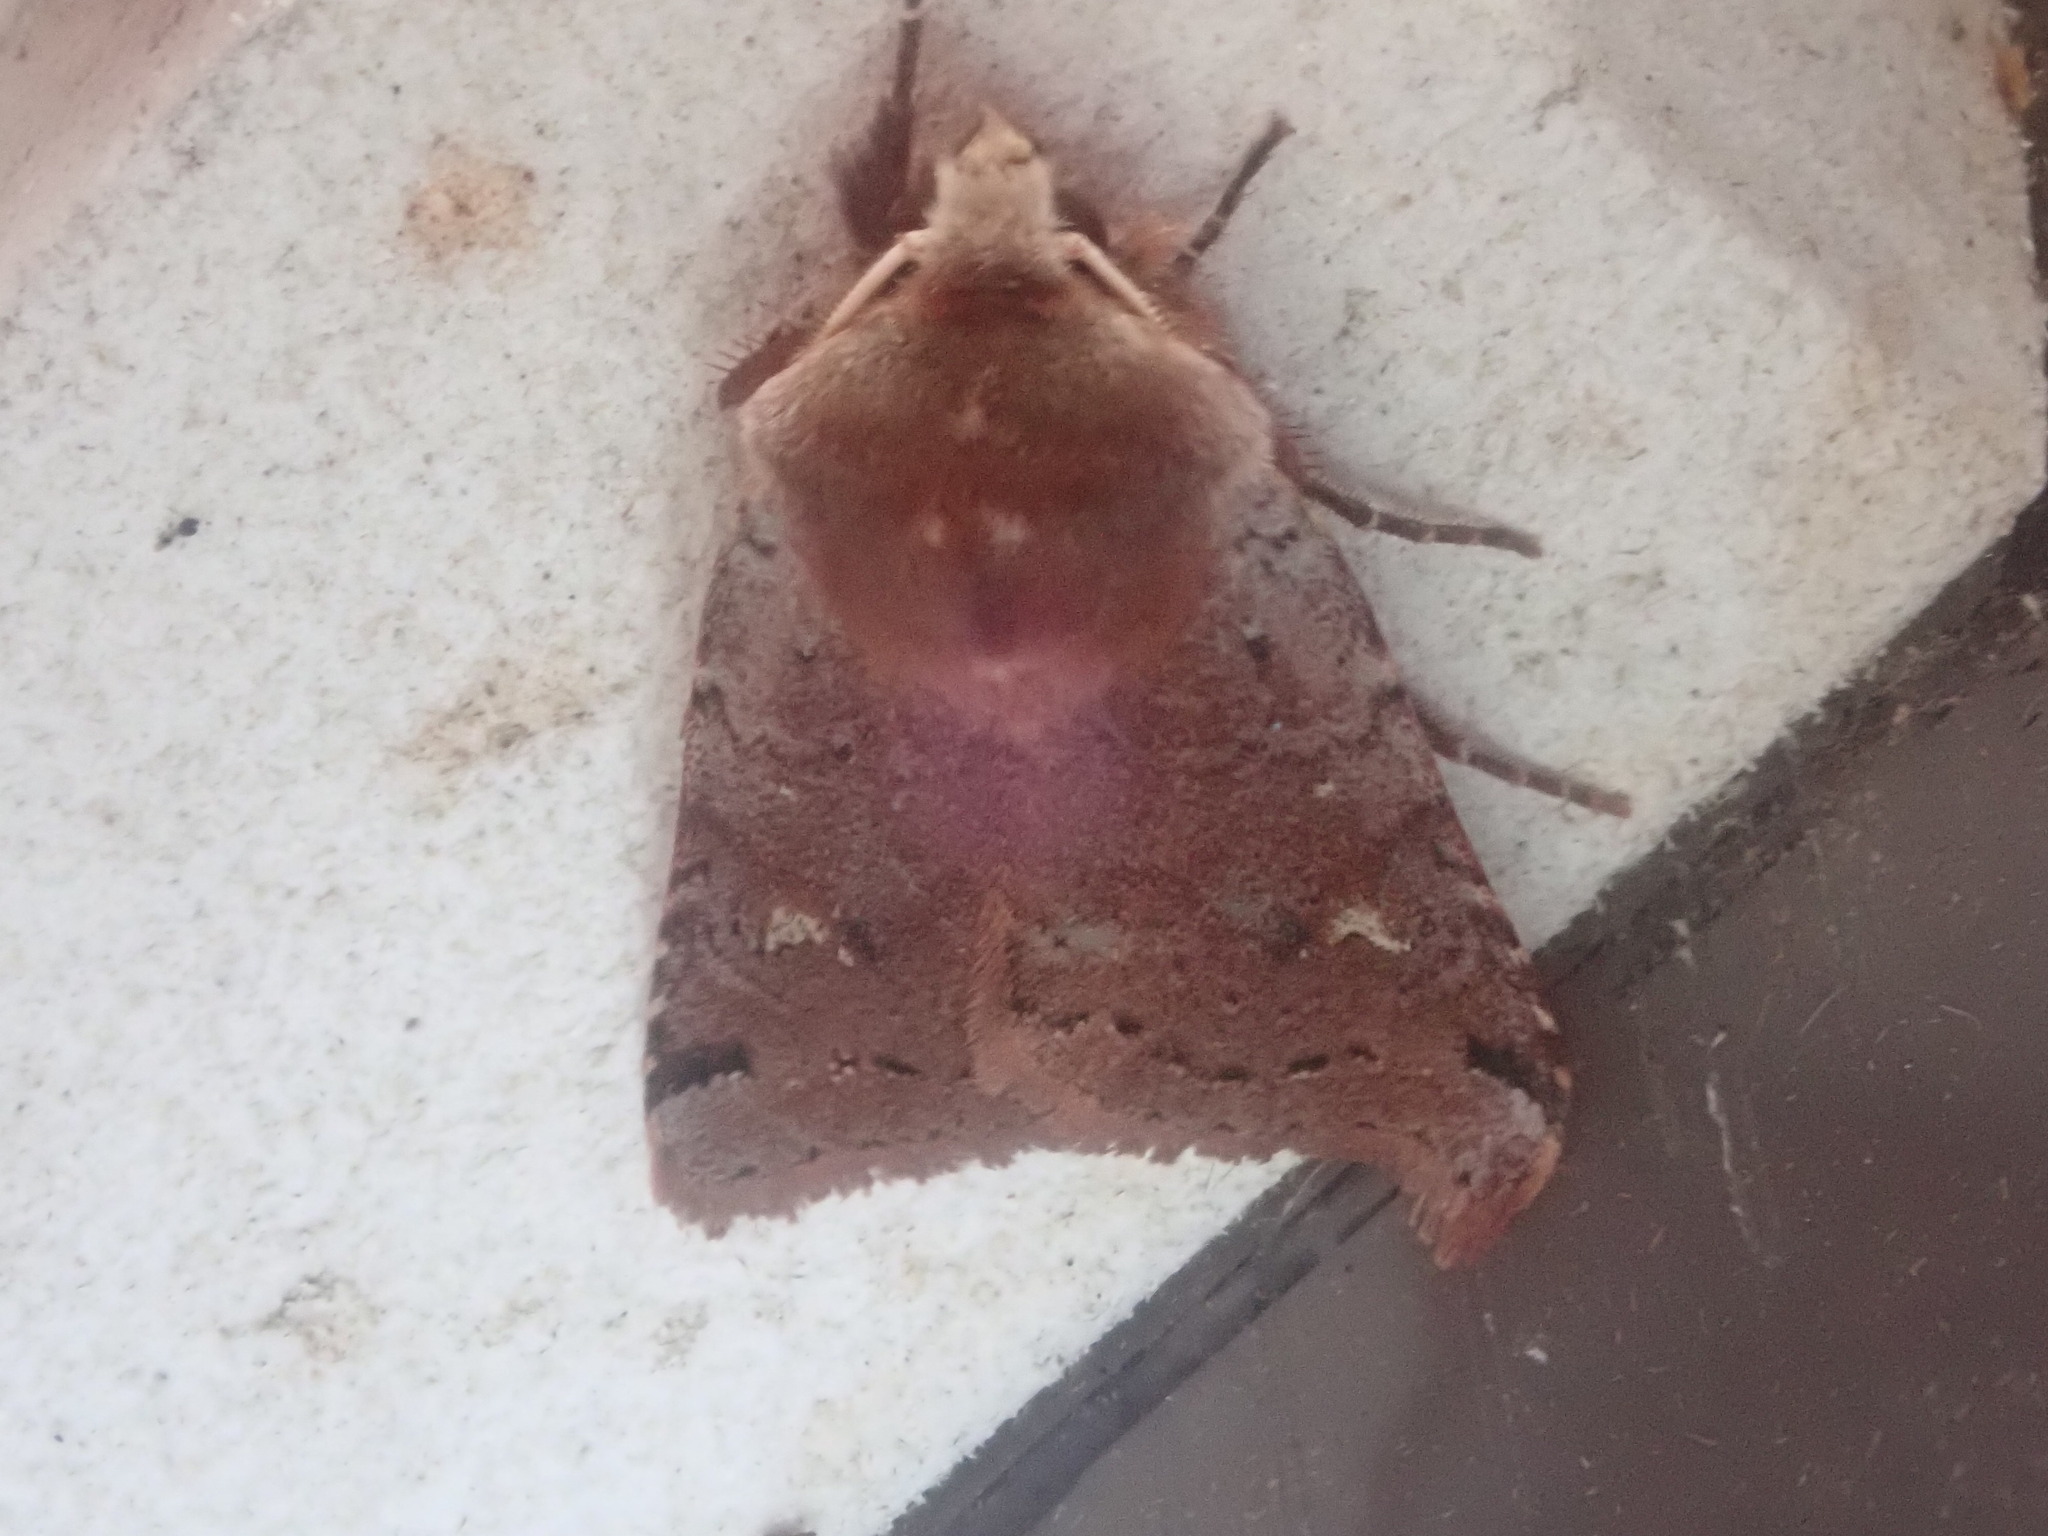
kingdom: Animalia
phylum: Arthropoda
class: Insecta
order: Lepidoptera
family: Noctuidae
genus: Cerastis
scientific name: Cerastis fishii
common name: Fish's dart
